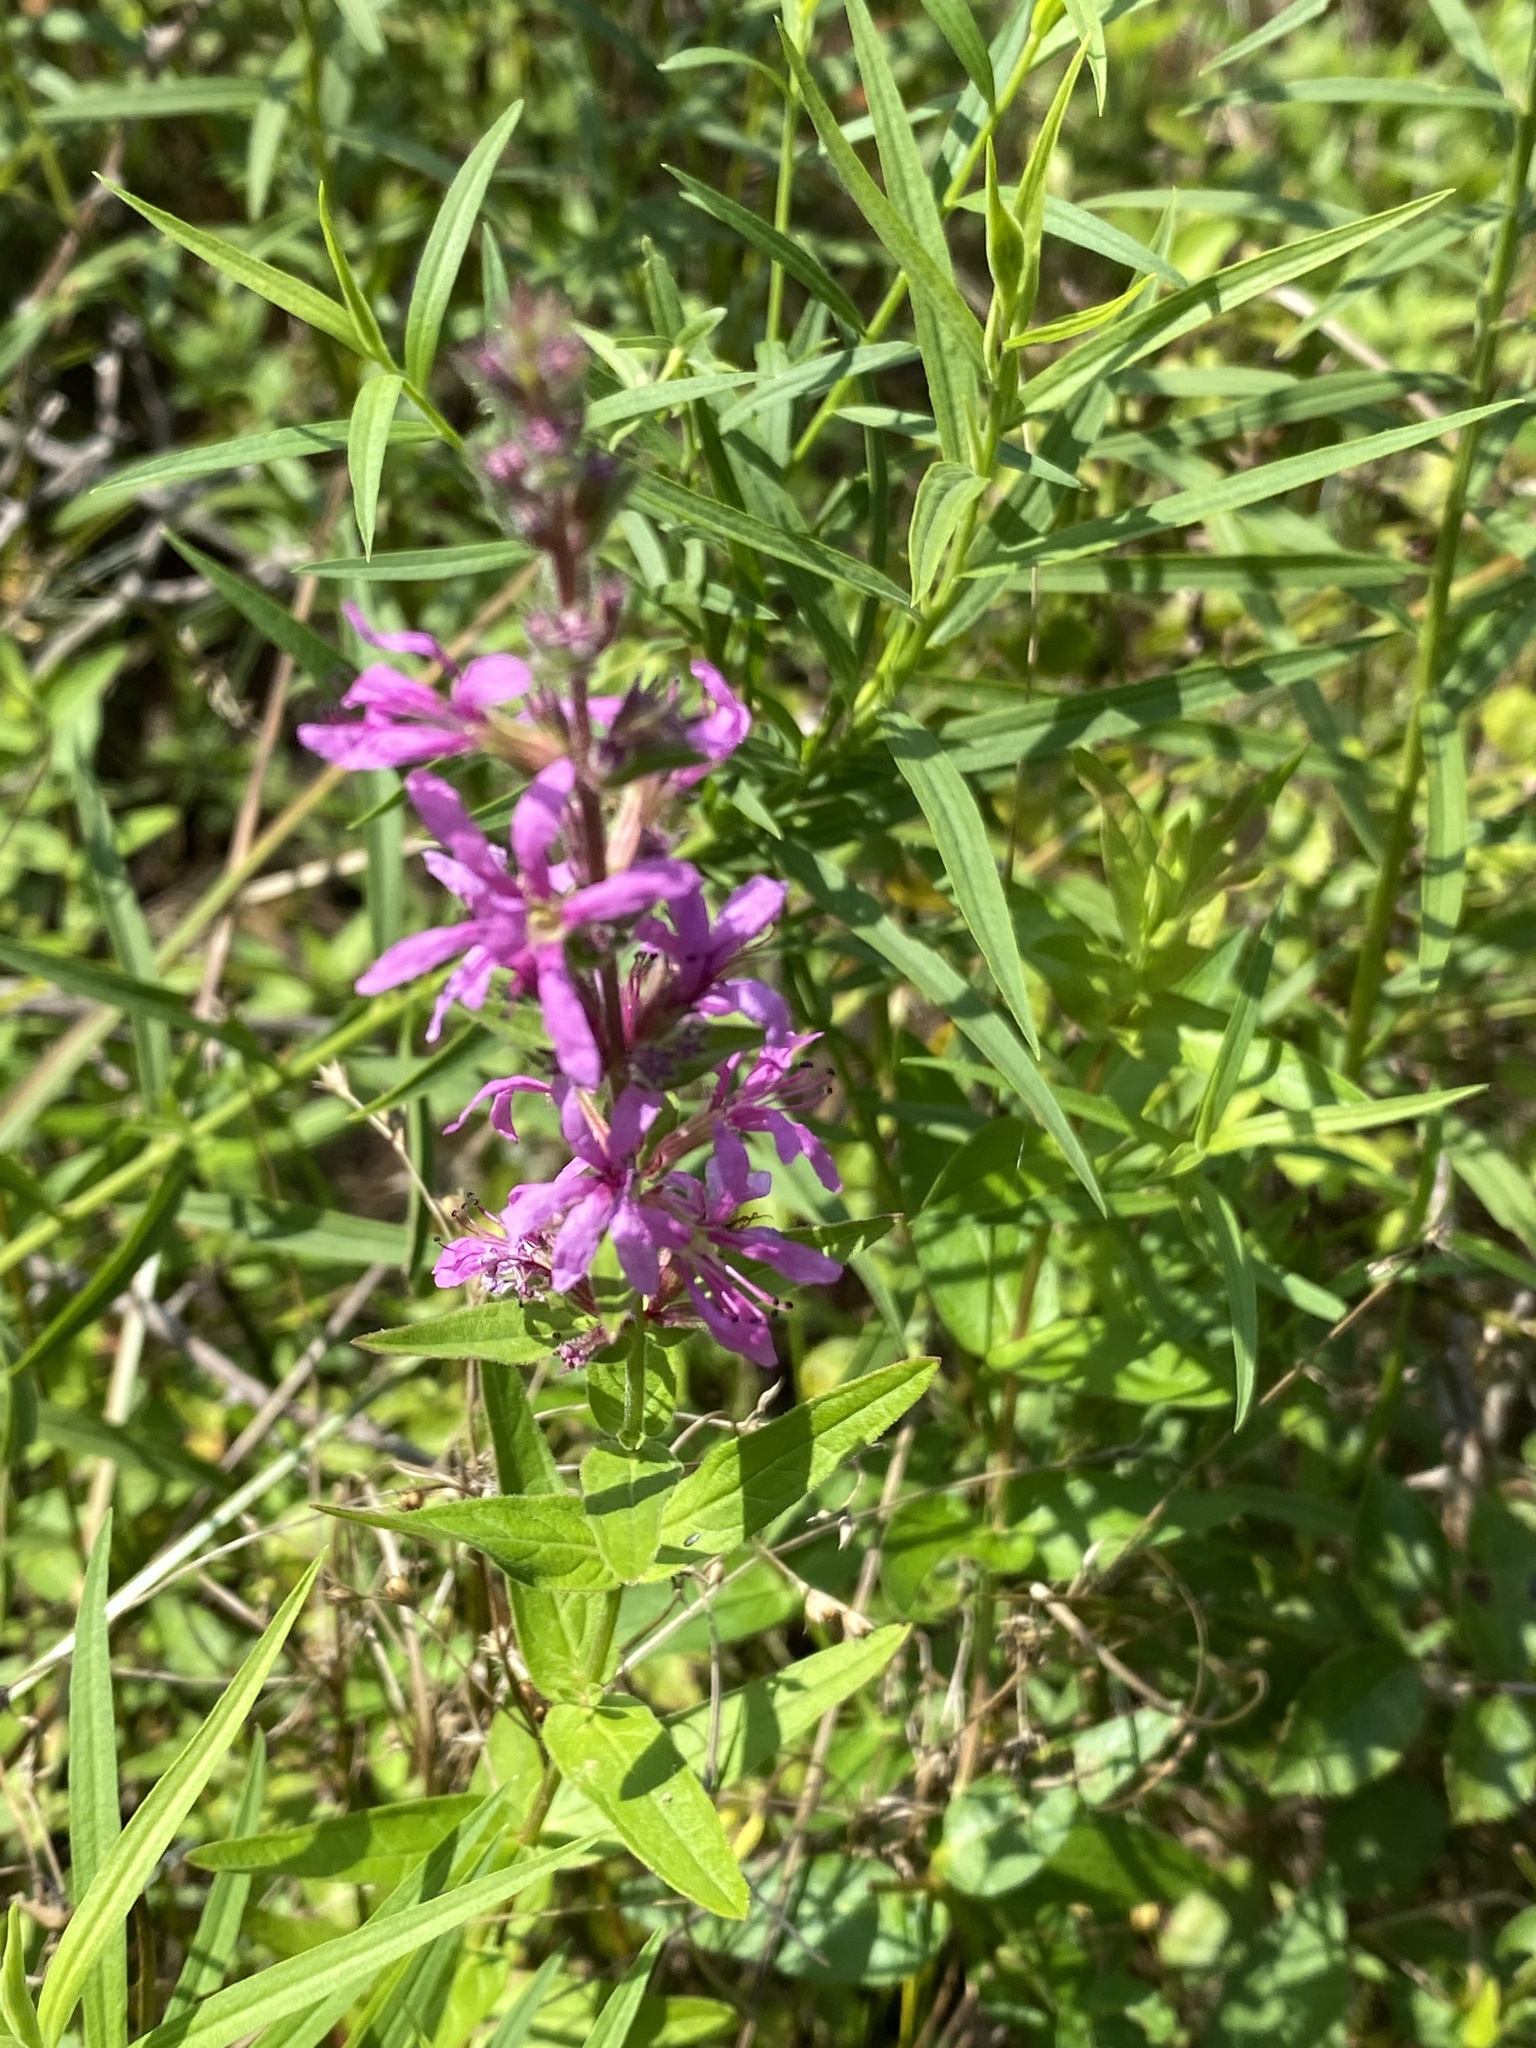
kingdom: Plantae
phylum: Tracheophyta
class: Magnoliopsida
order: Myrtales
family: Lythraceae
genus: Lythrum
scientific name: Lythrum salicaria
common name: Purple loosestrife
